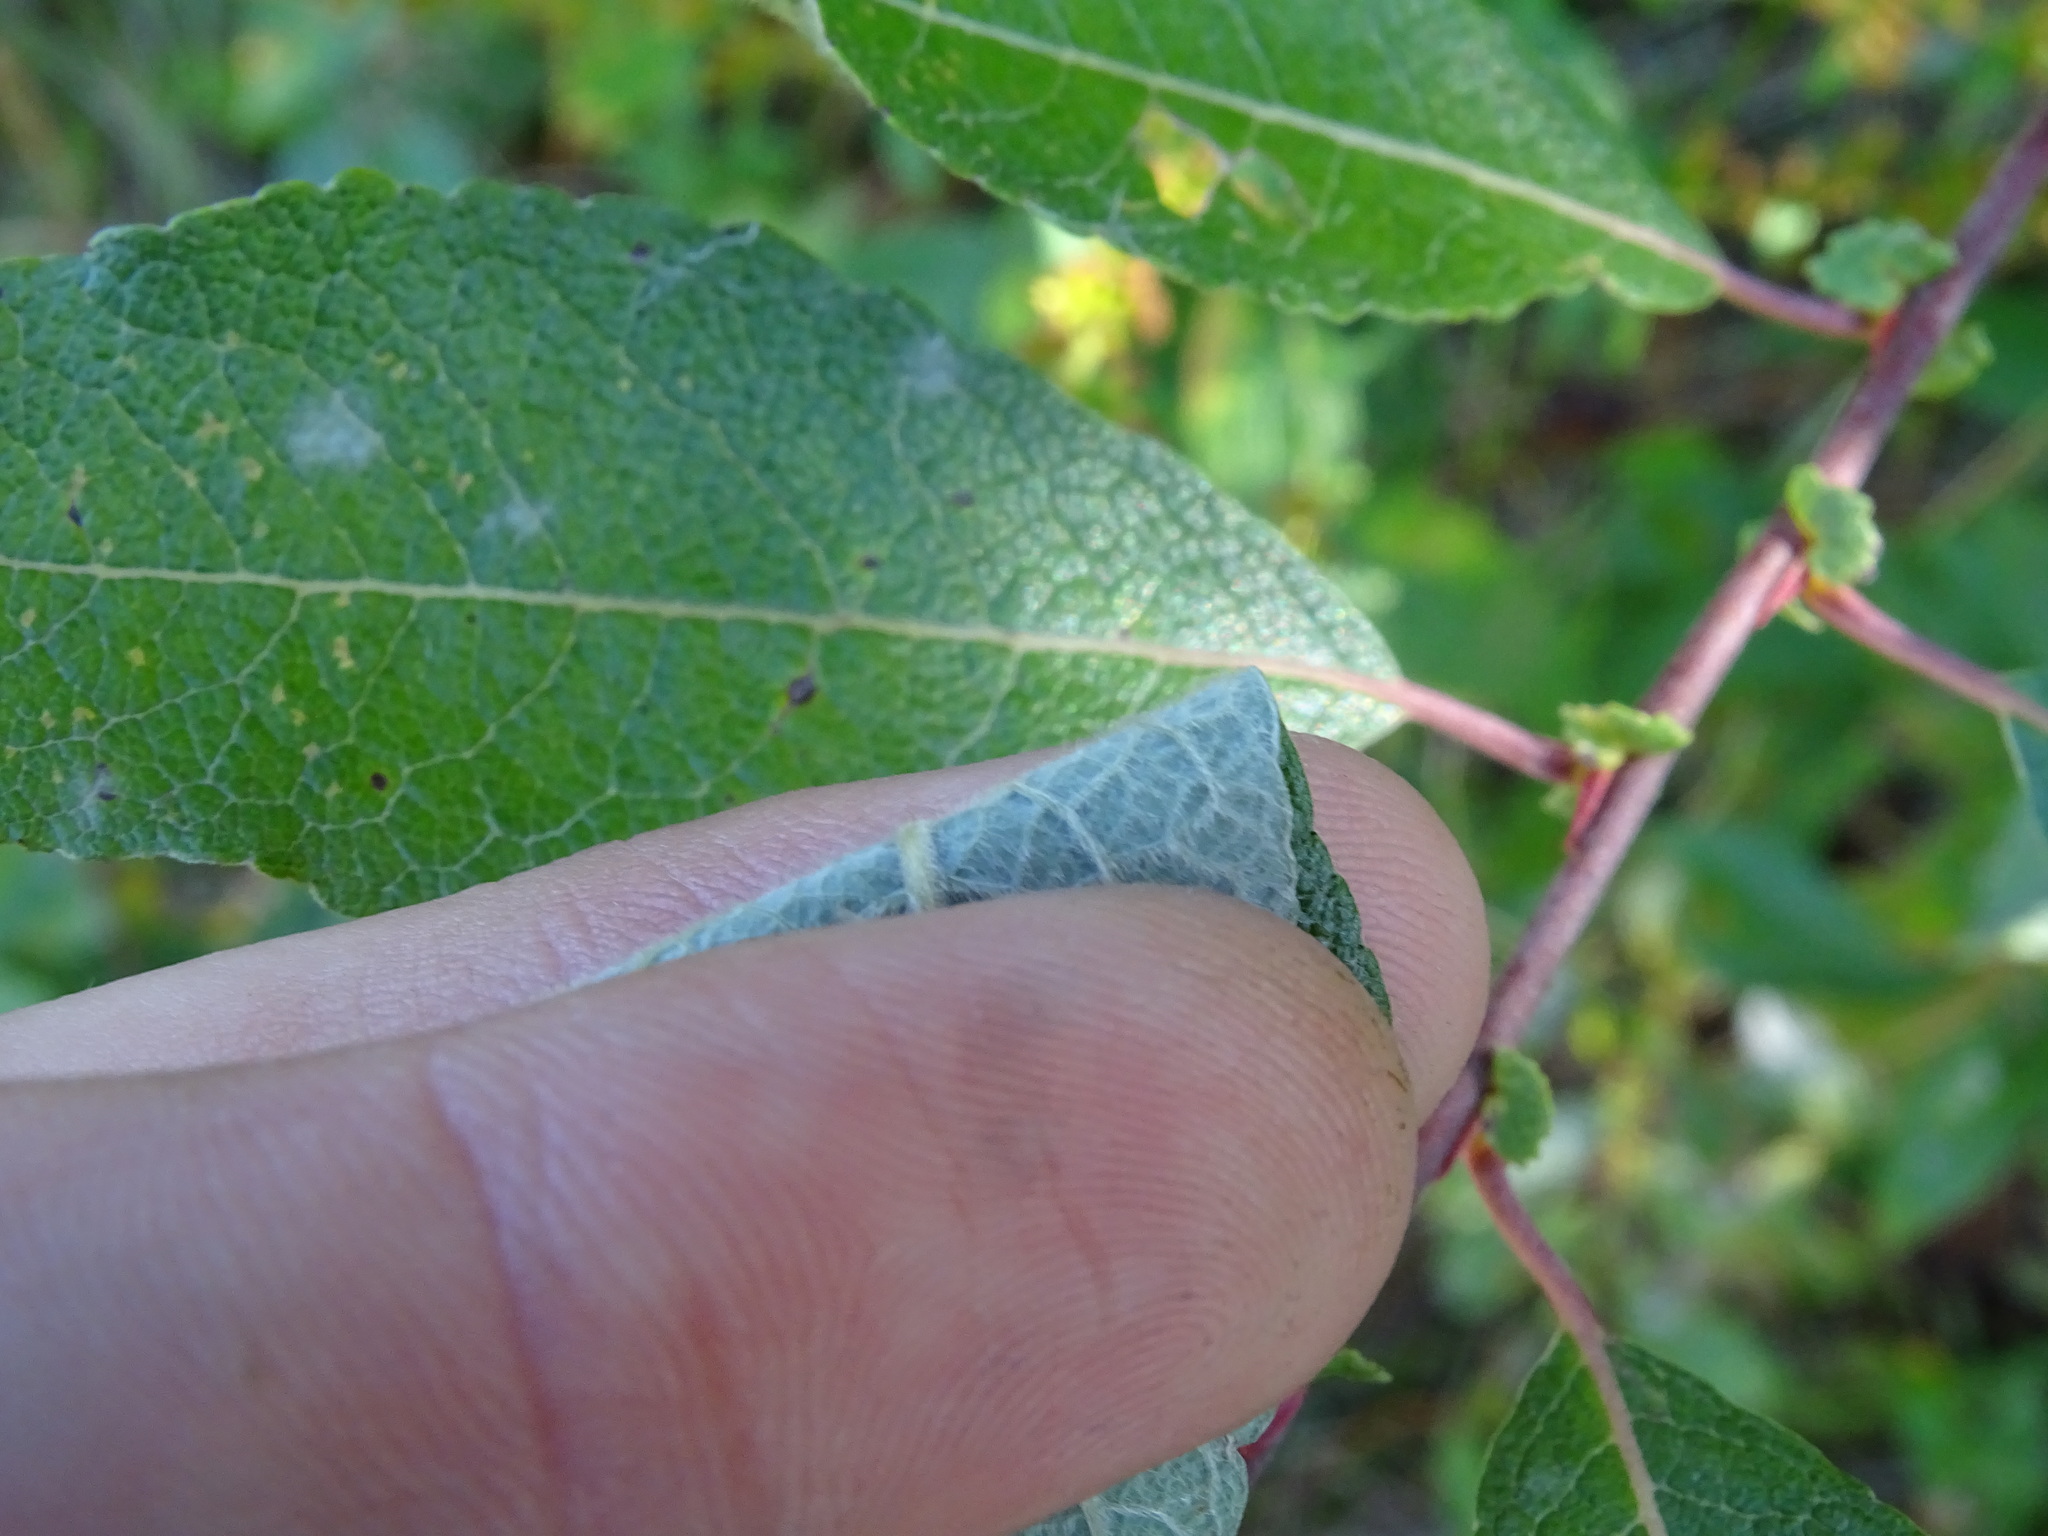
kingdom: Plantae
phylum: Tracheophyta
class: Magnoliopsida
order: Malpighiales
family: Salicaceae
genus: Salix
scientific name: Salix bebbiana
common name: Bebb's willow
